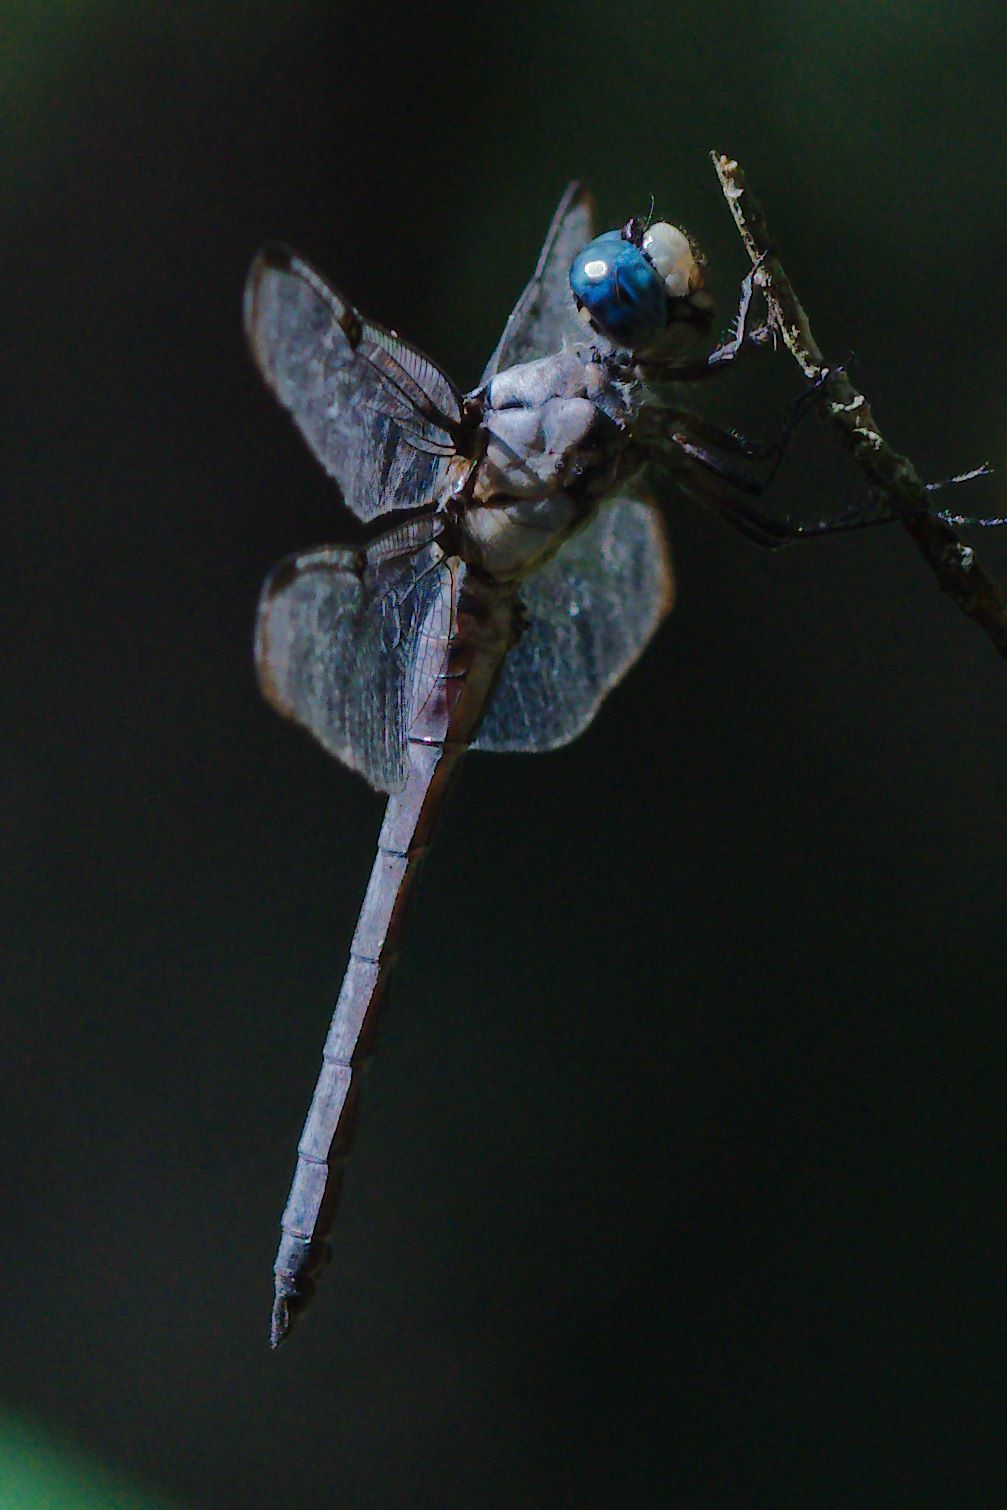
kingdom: Animalia
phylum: Arthropoda
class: Insecta
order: Odonata
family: Libellulidae
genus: Libellula
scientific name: Libellula vibrans
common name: Great blue skimmer
